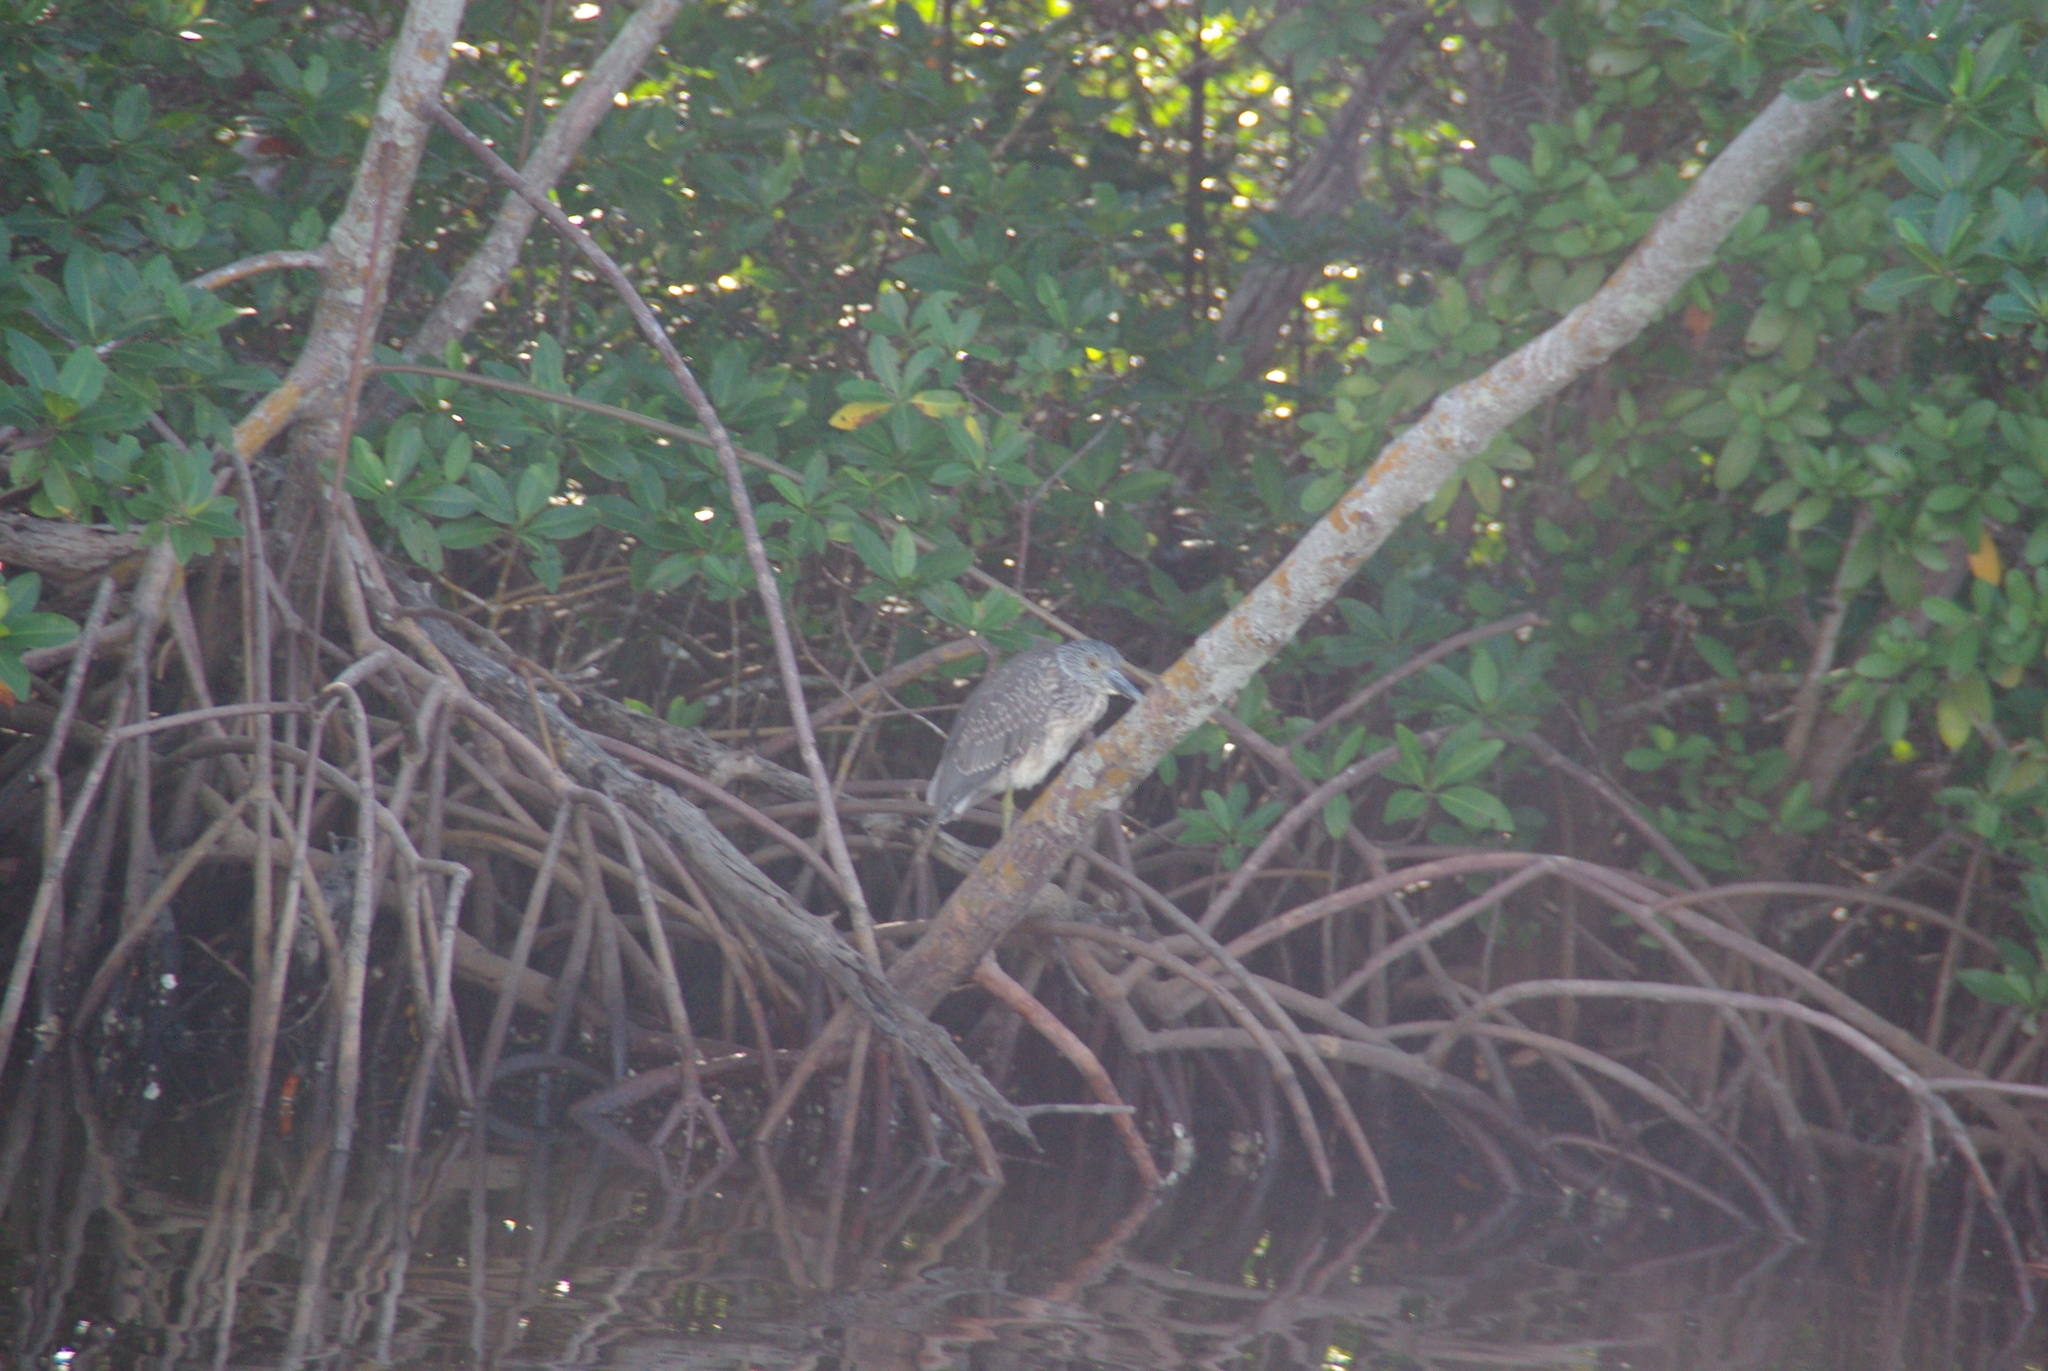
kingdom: Animalia
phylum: Chordata
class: Aves
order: Pelecaniformes
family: Ardeidae
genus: Nyctanassa
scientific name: Nyctanassa violacea
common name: Yellow-crowned night heron
